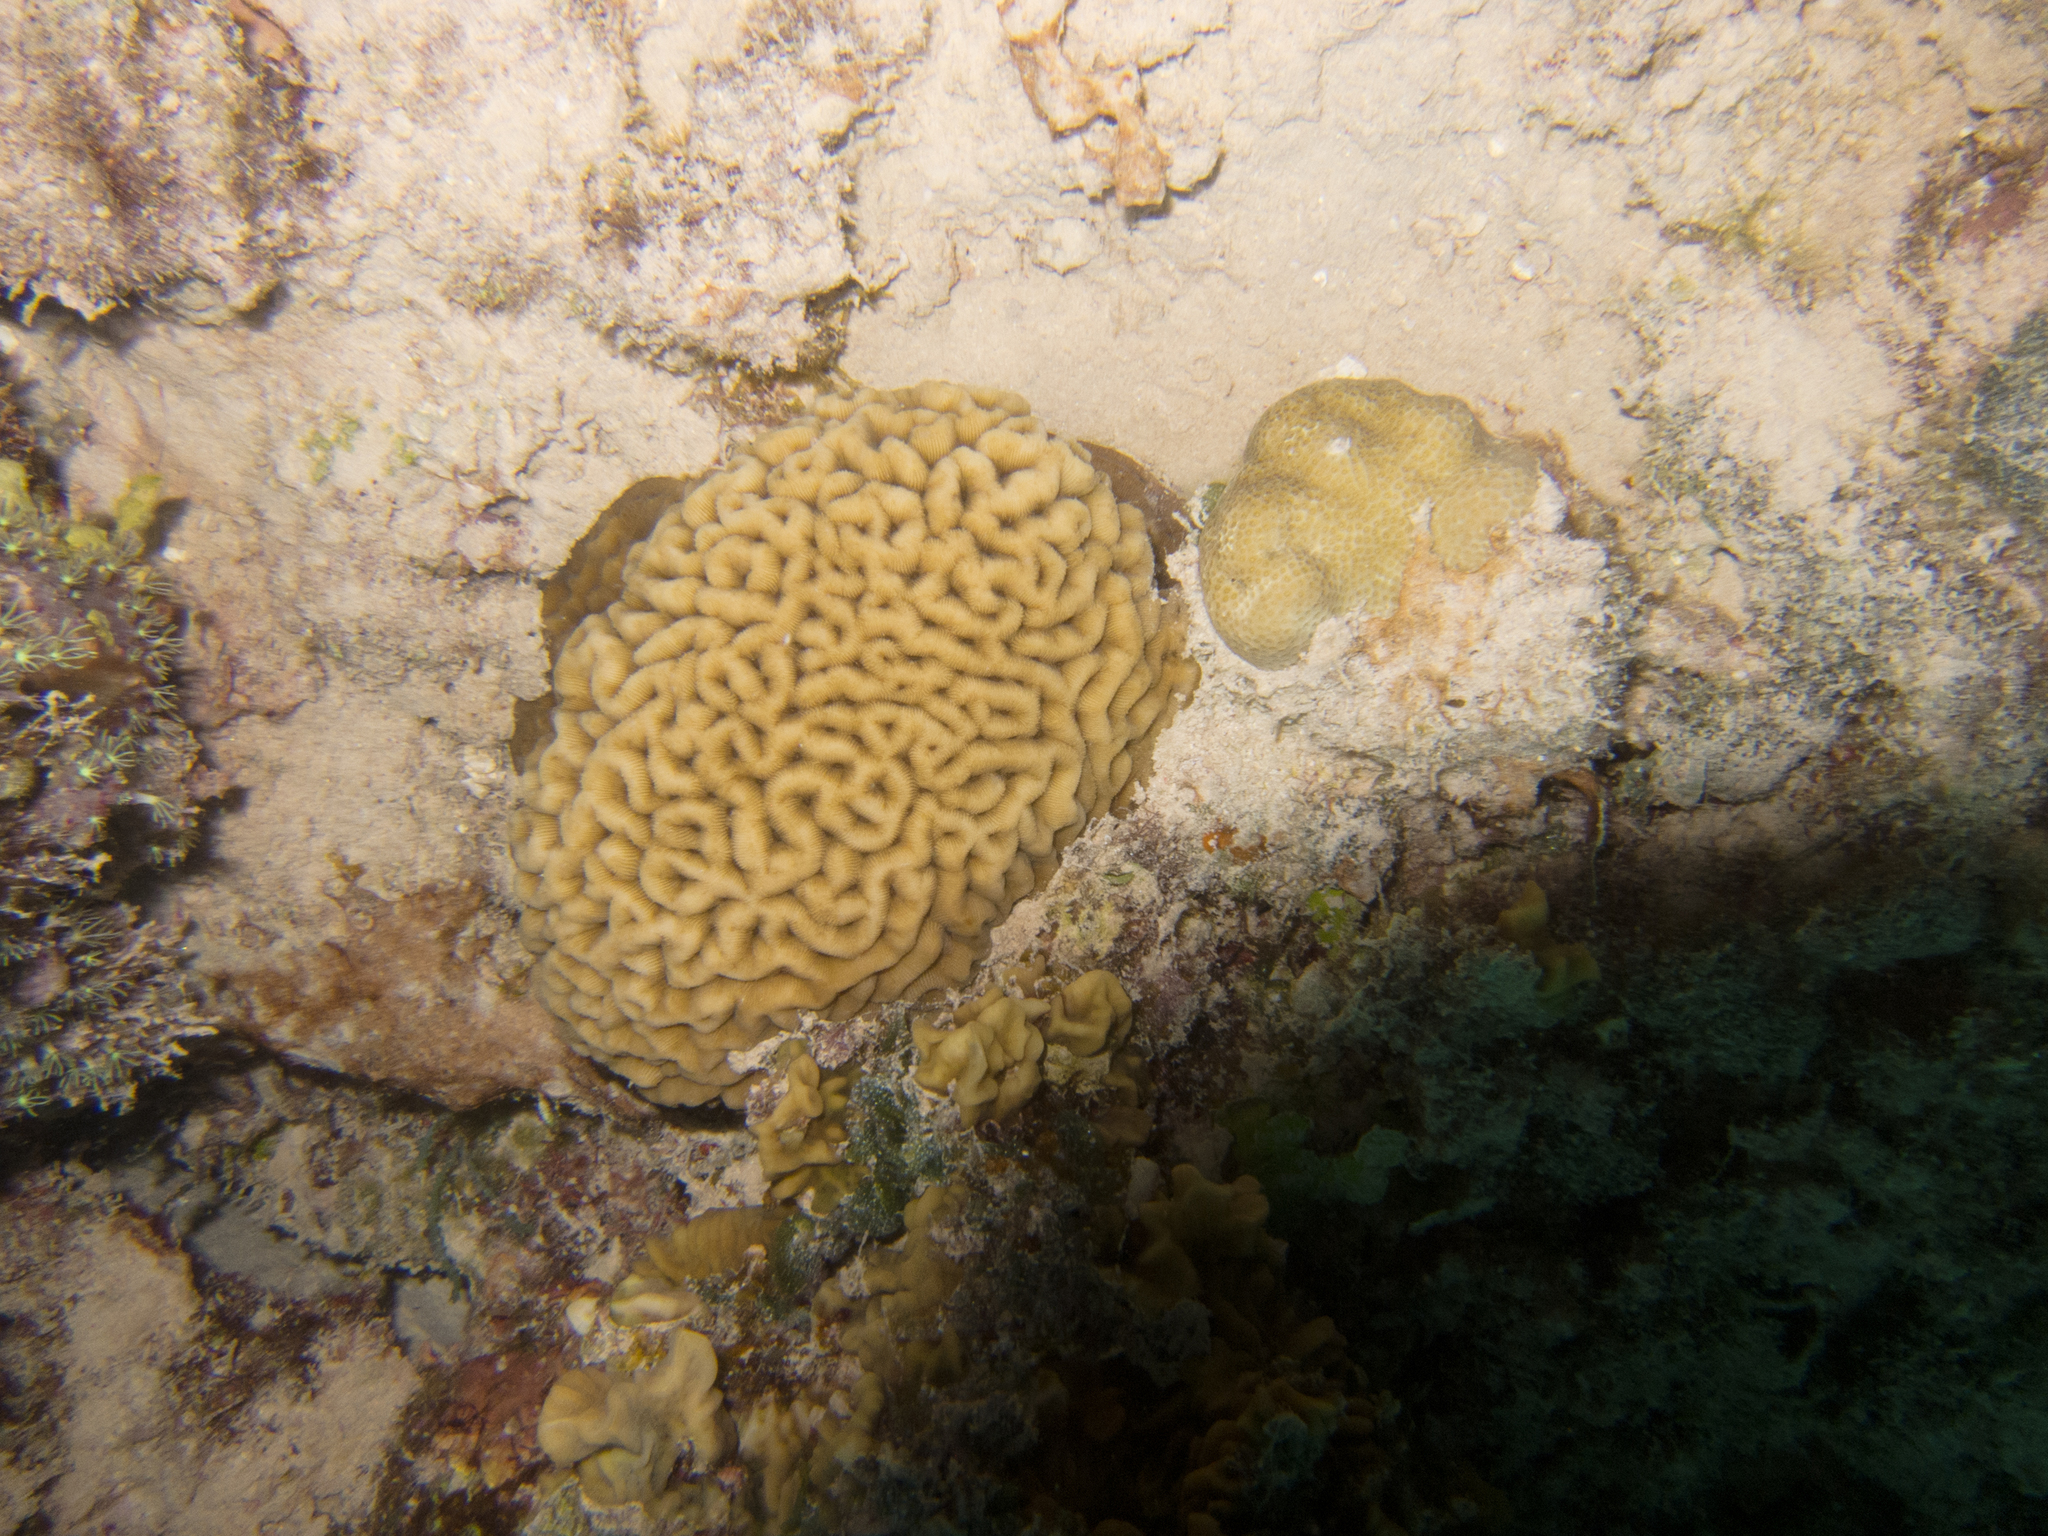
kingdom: Animalia
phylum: Cnidaria
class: Anthozoa
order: Scleractinia
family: Coscinaraeidae
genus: Coscinaraea
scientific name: Coscinaraea monile
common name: Wrinkle coral
